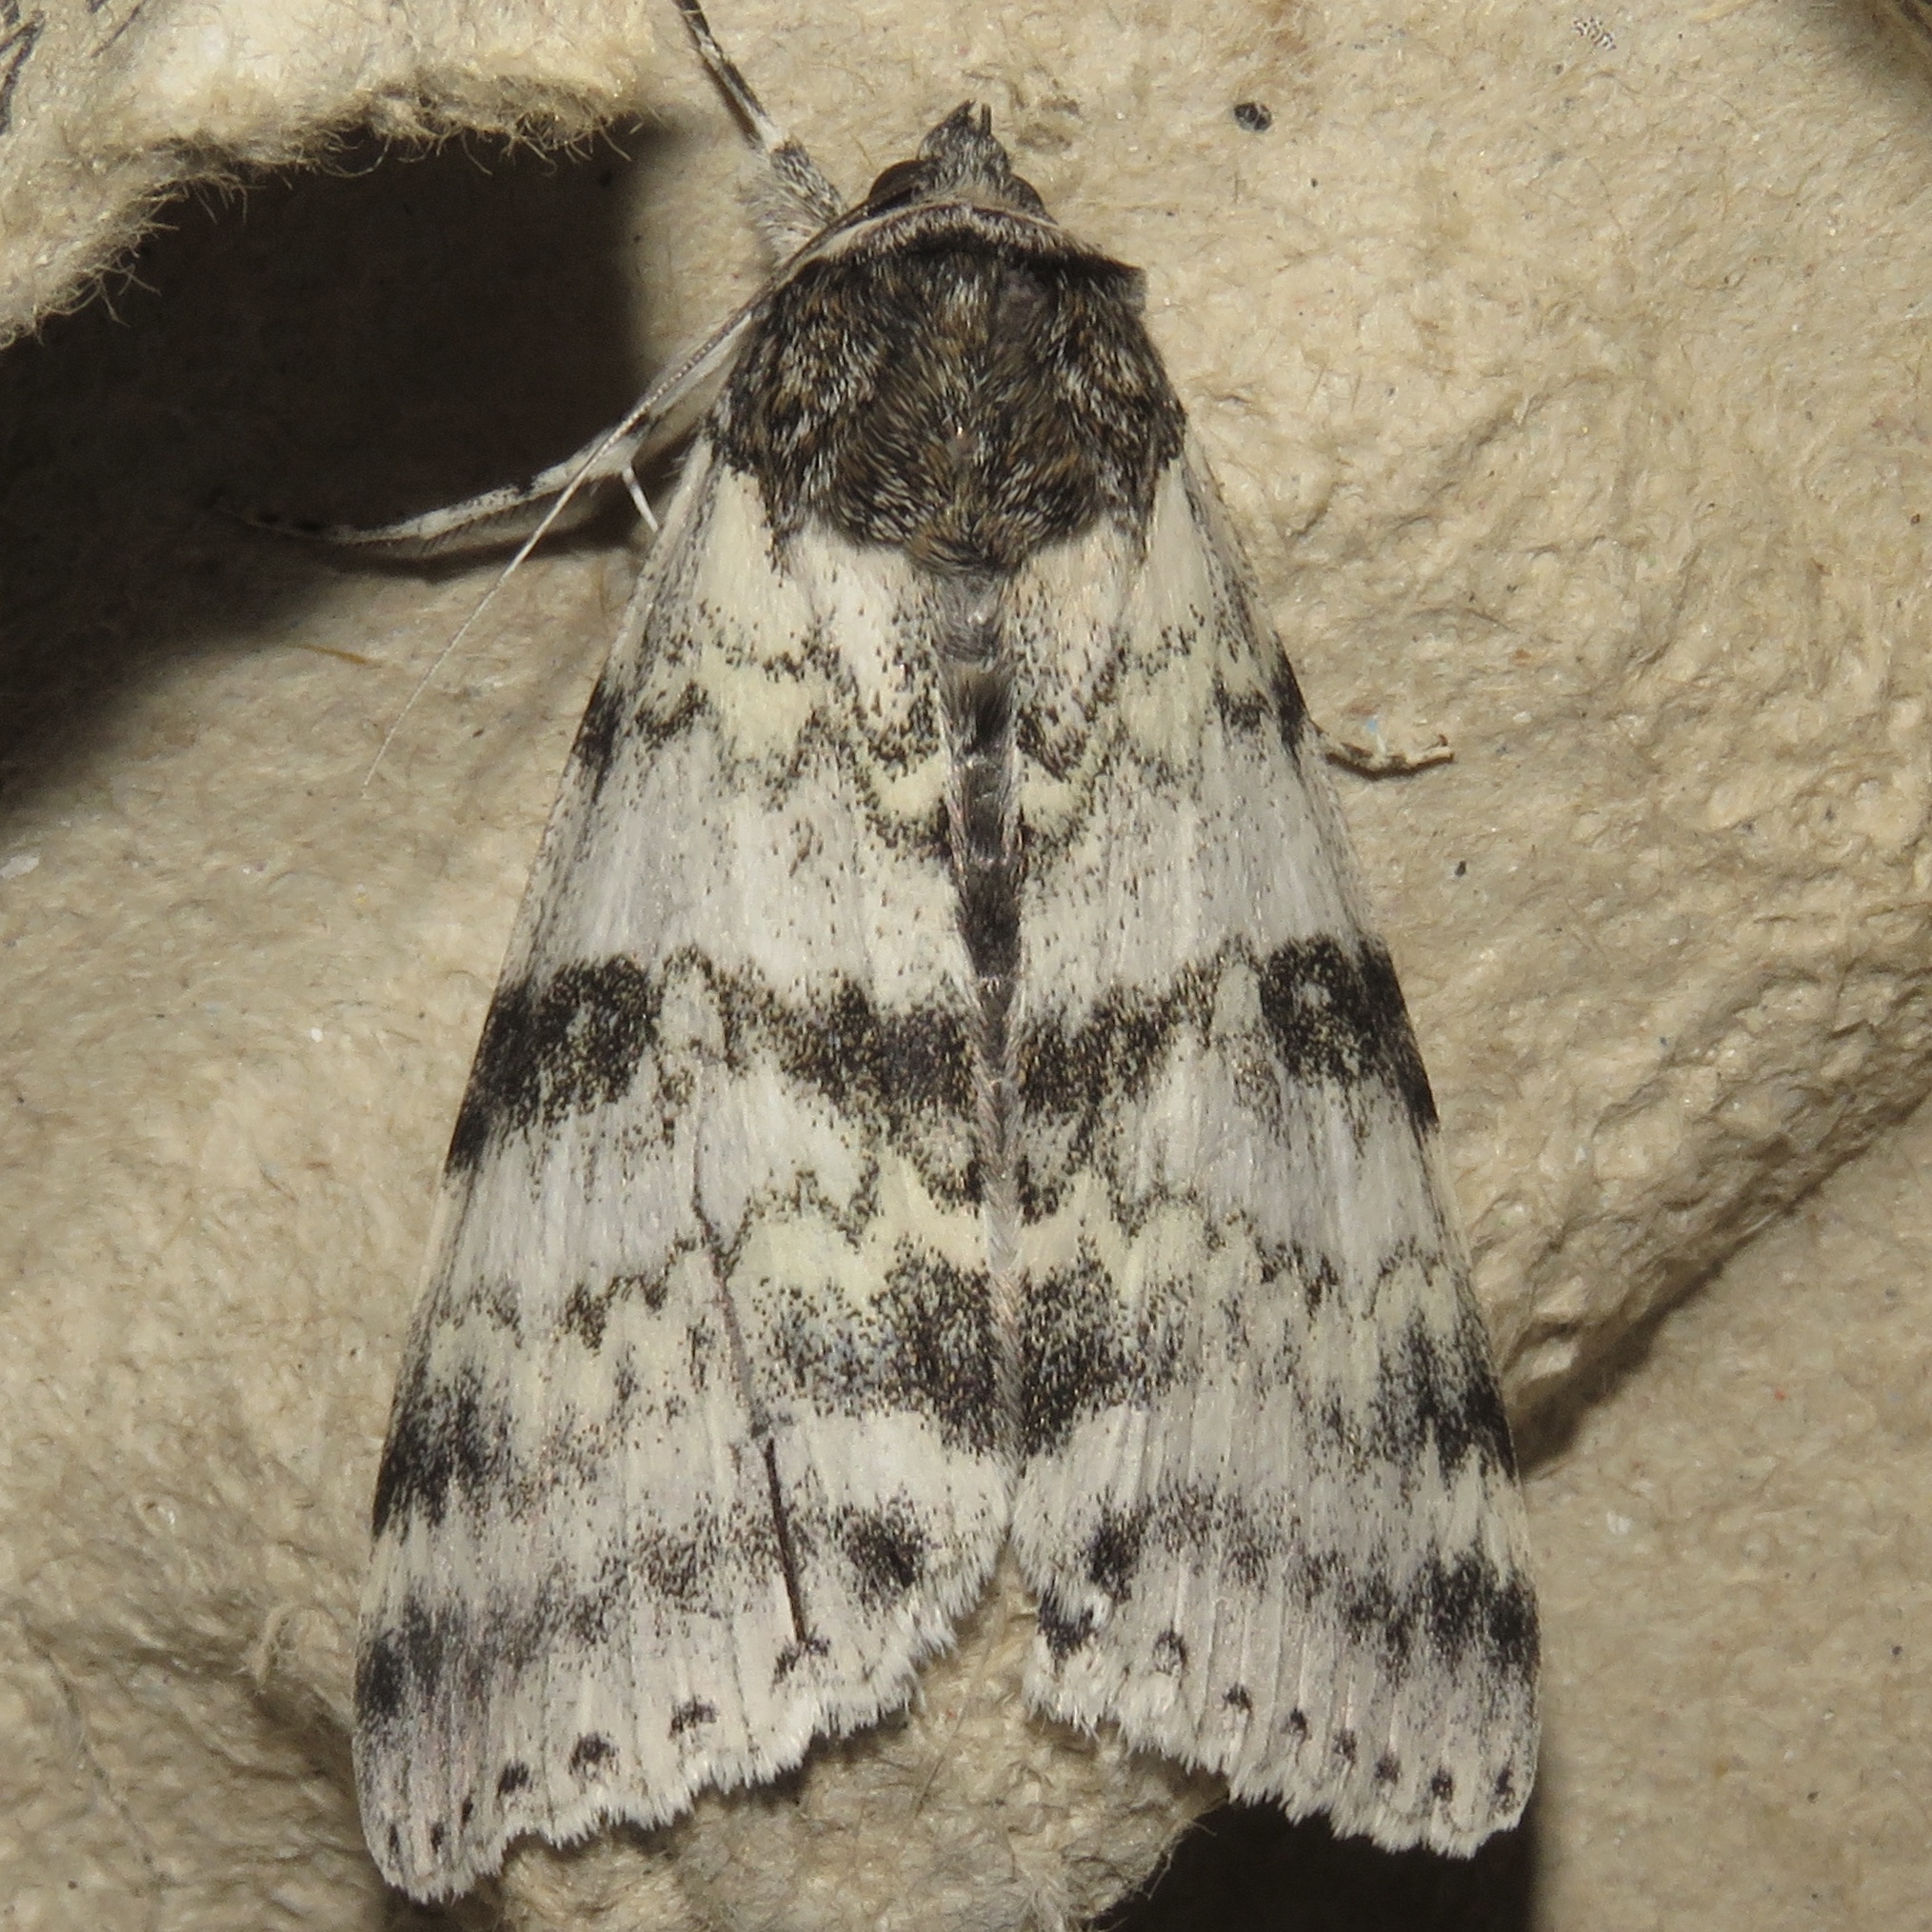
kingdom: Animalia
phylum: Arthropoda
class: Insecta
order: Lepidoptera
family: Erebidae
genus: Catocala
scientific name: Catocala relicta
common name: White underwing
